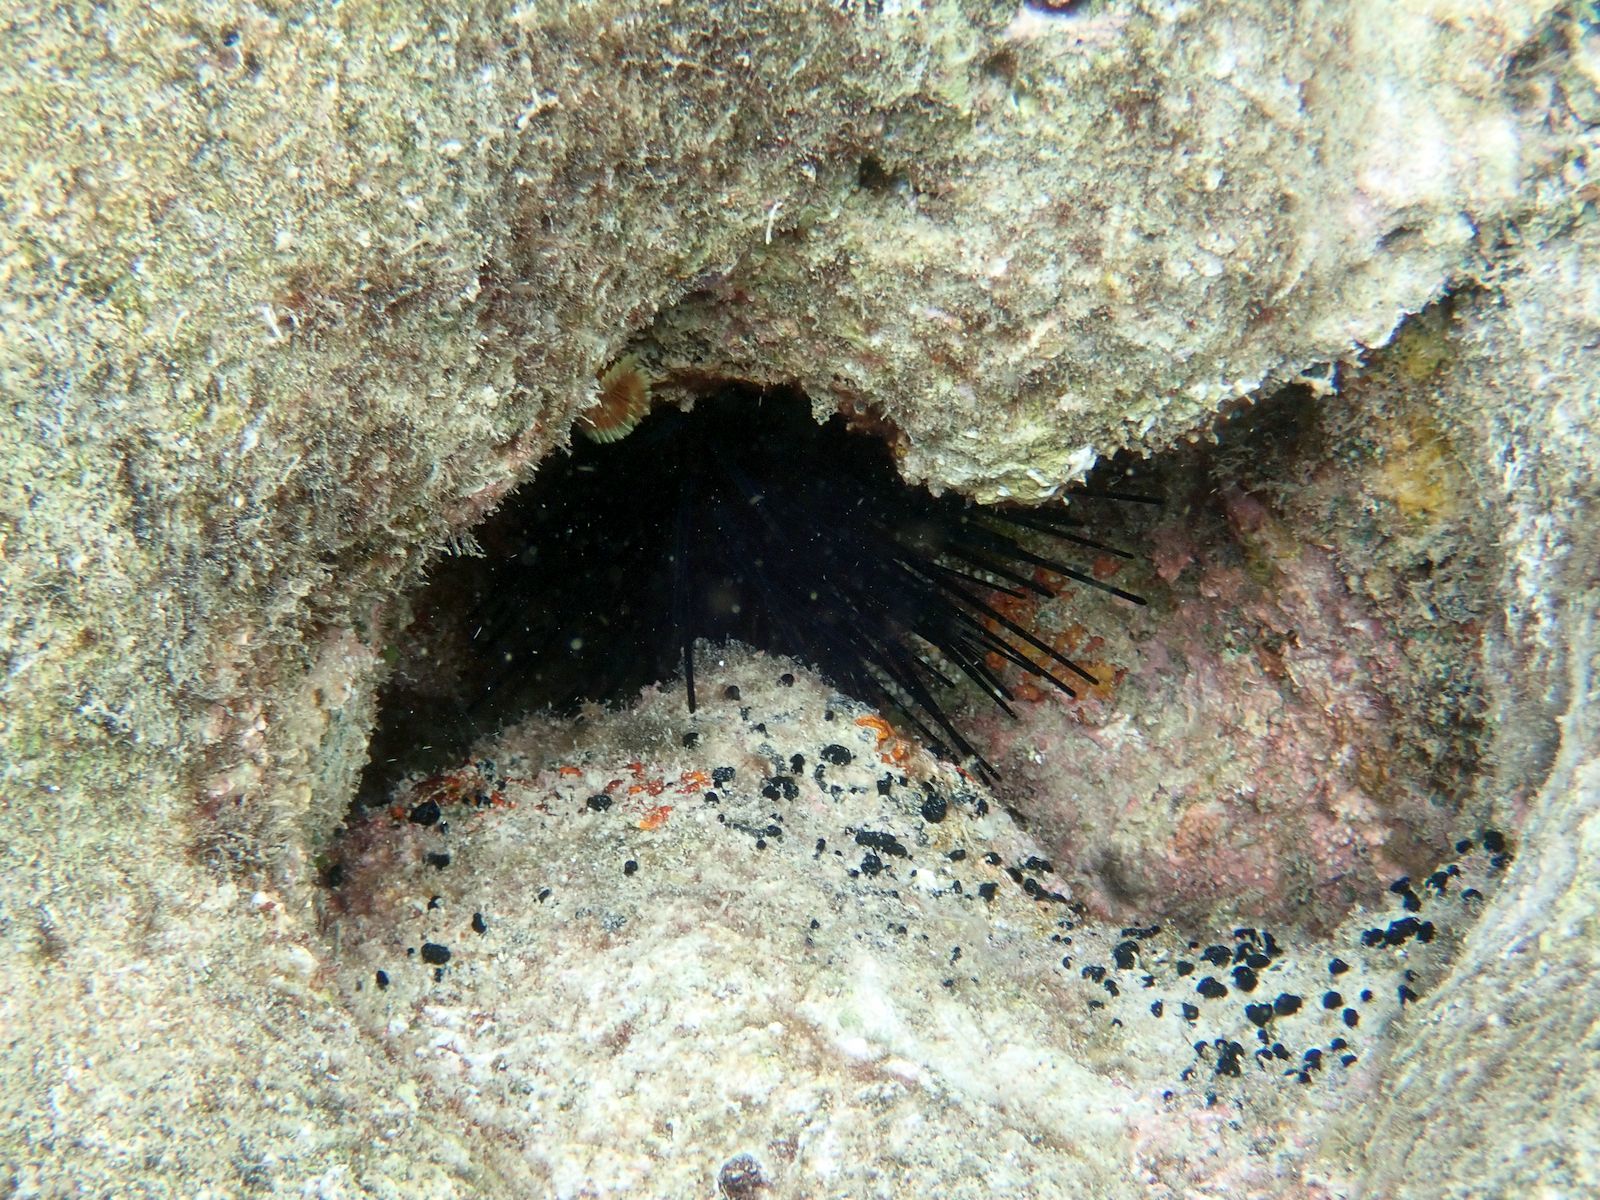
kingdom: Animalia
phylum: Echinodermata
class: Echinoidea
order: Diadematoida
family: Diadematidae
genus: Echinothrix
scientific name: Echinothrix diadema
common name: Schwarzer diademseeigel
